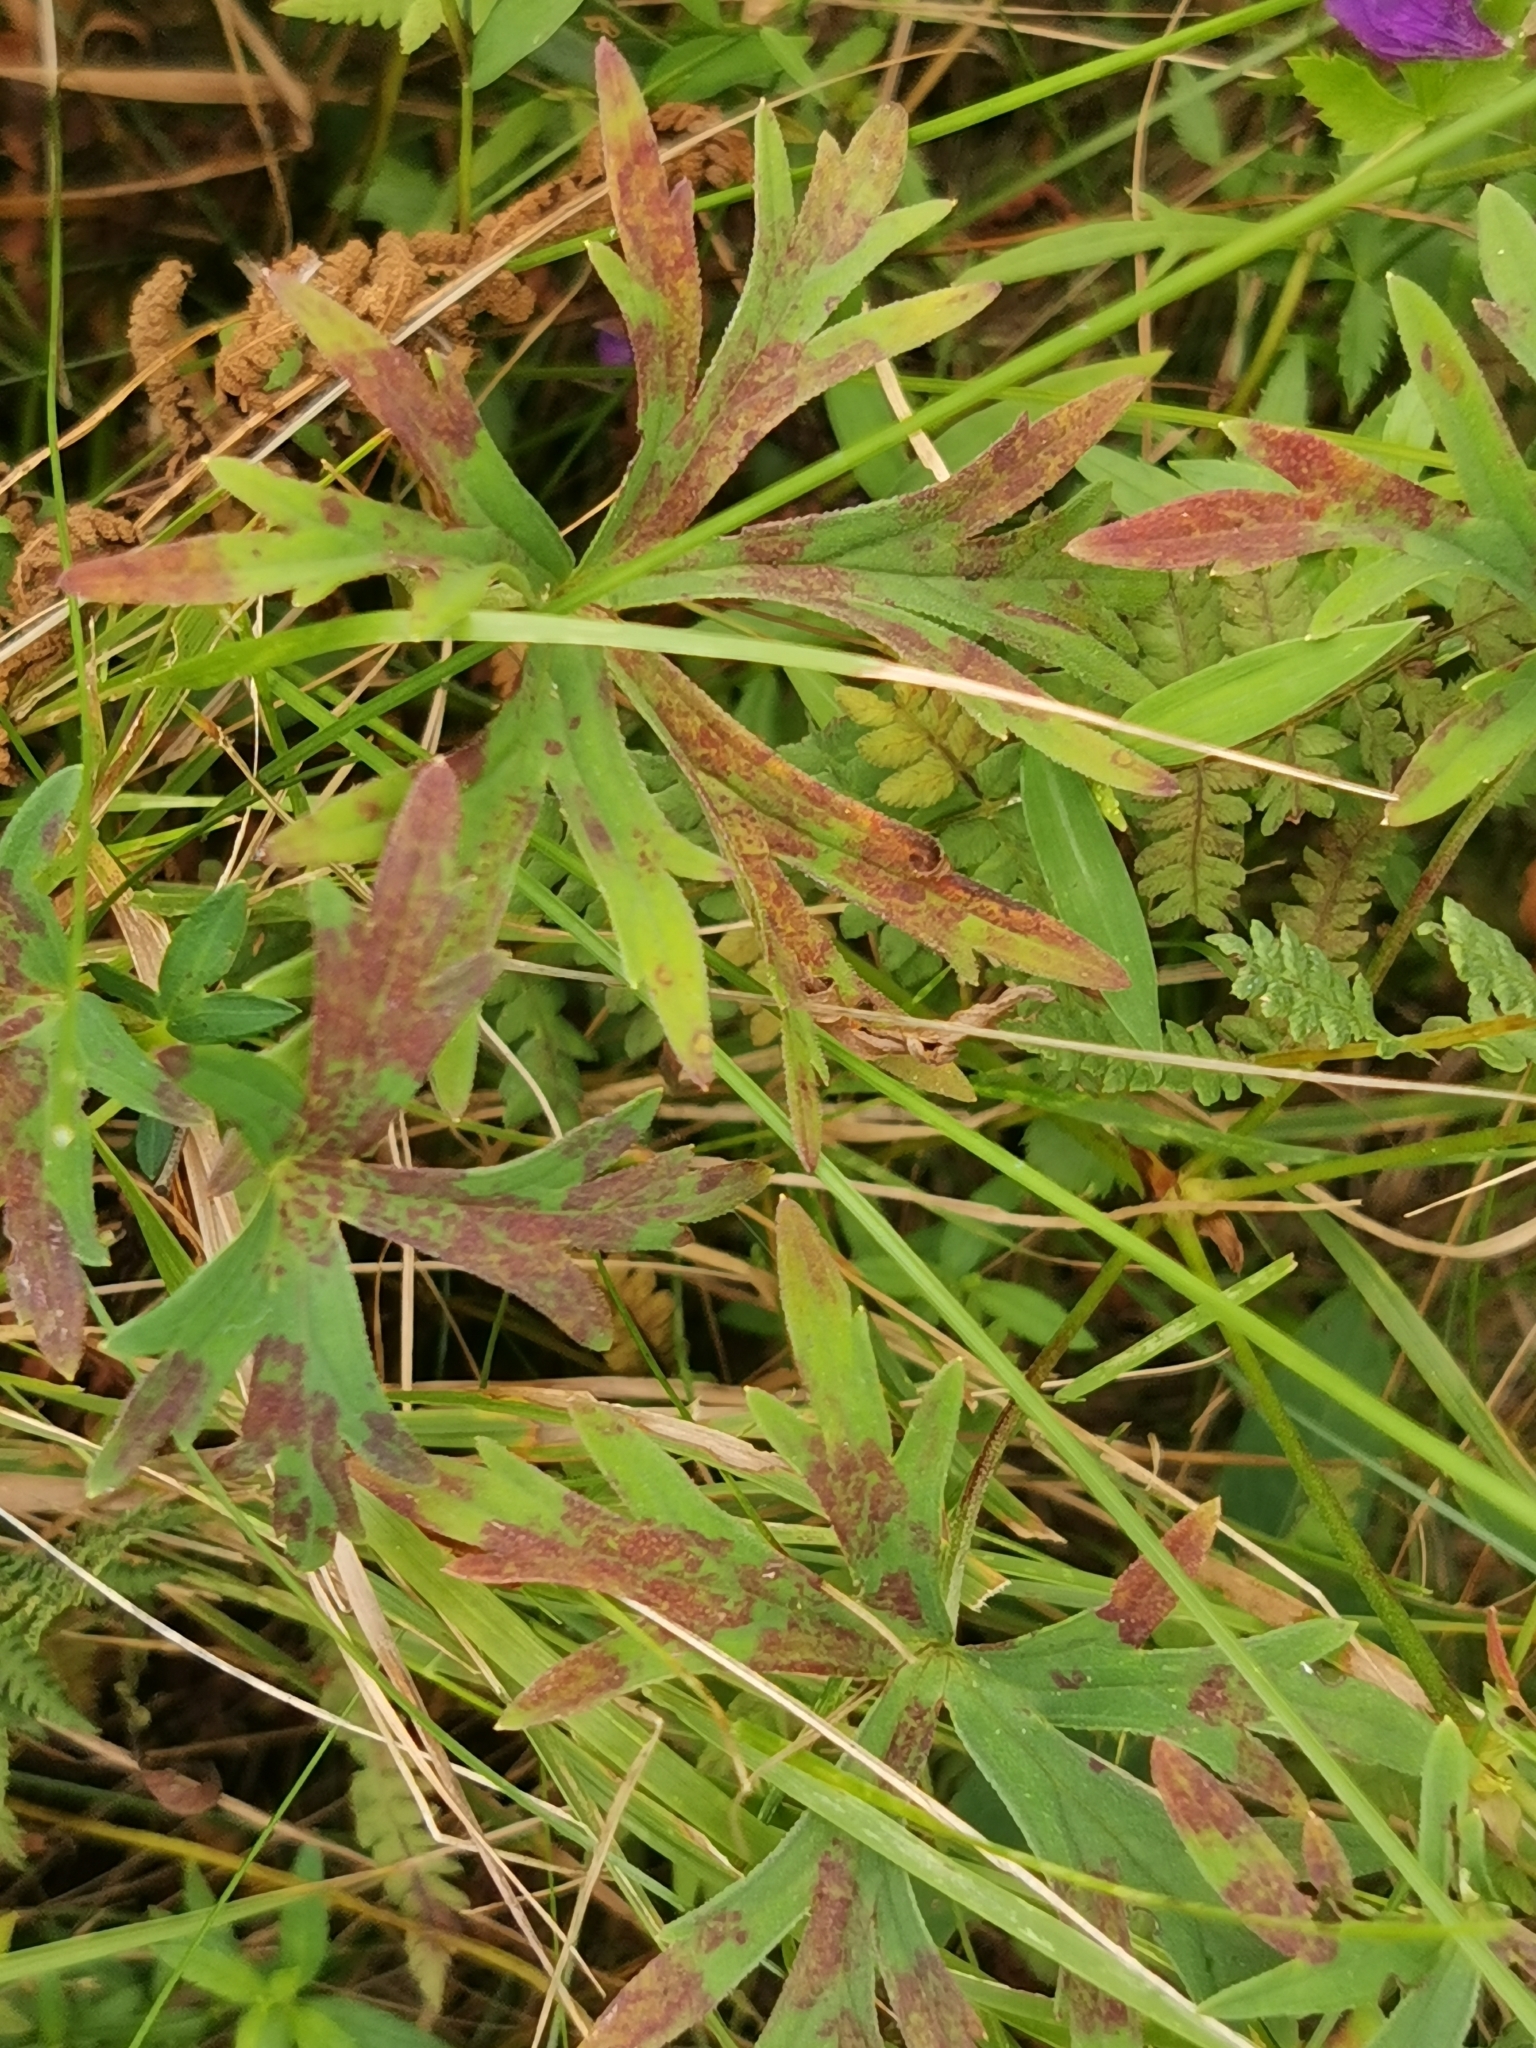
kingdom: Plantae
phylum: Tracheophyta
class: Magnoliopsida
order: Geraniales
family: Geraniaceae
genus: Geranium
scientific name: Geranium soboliferum
